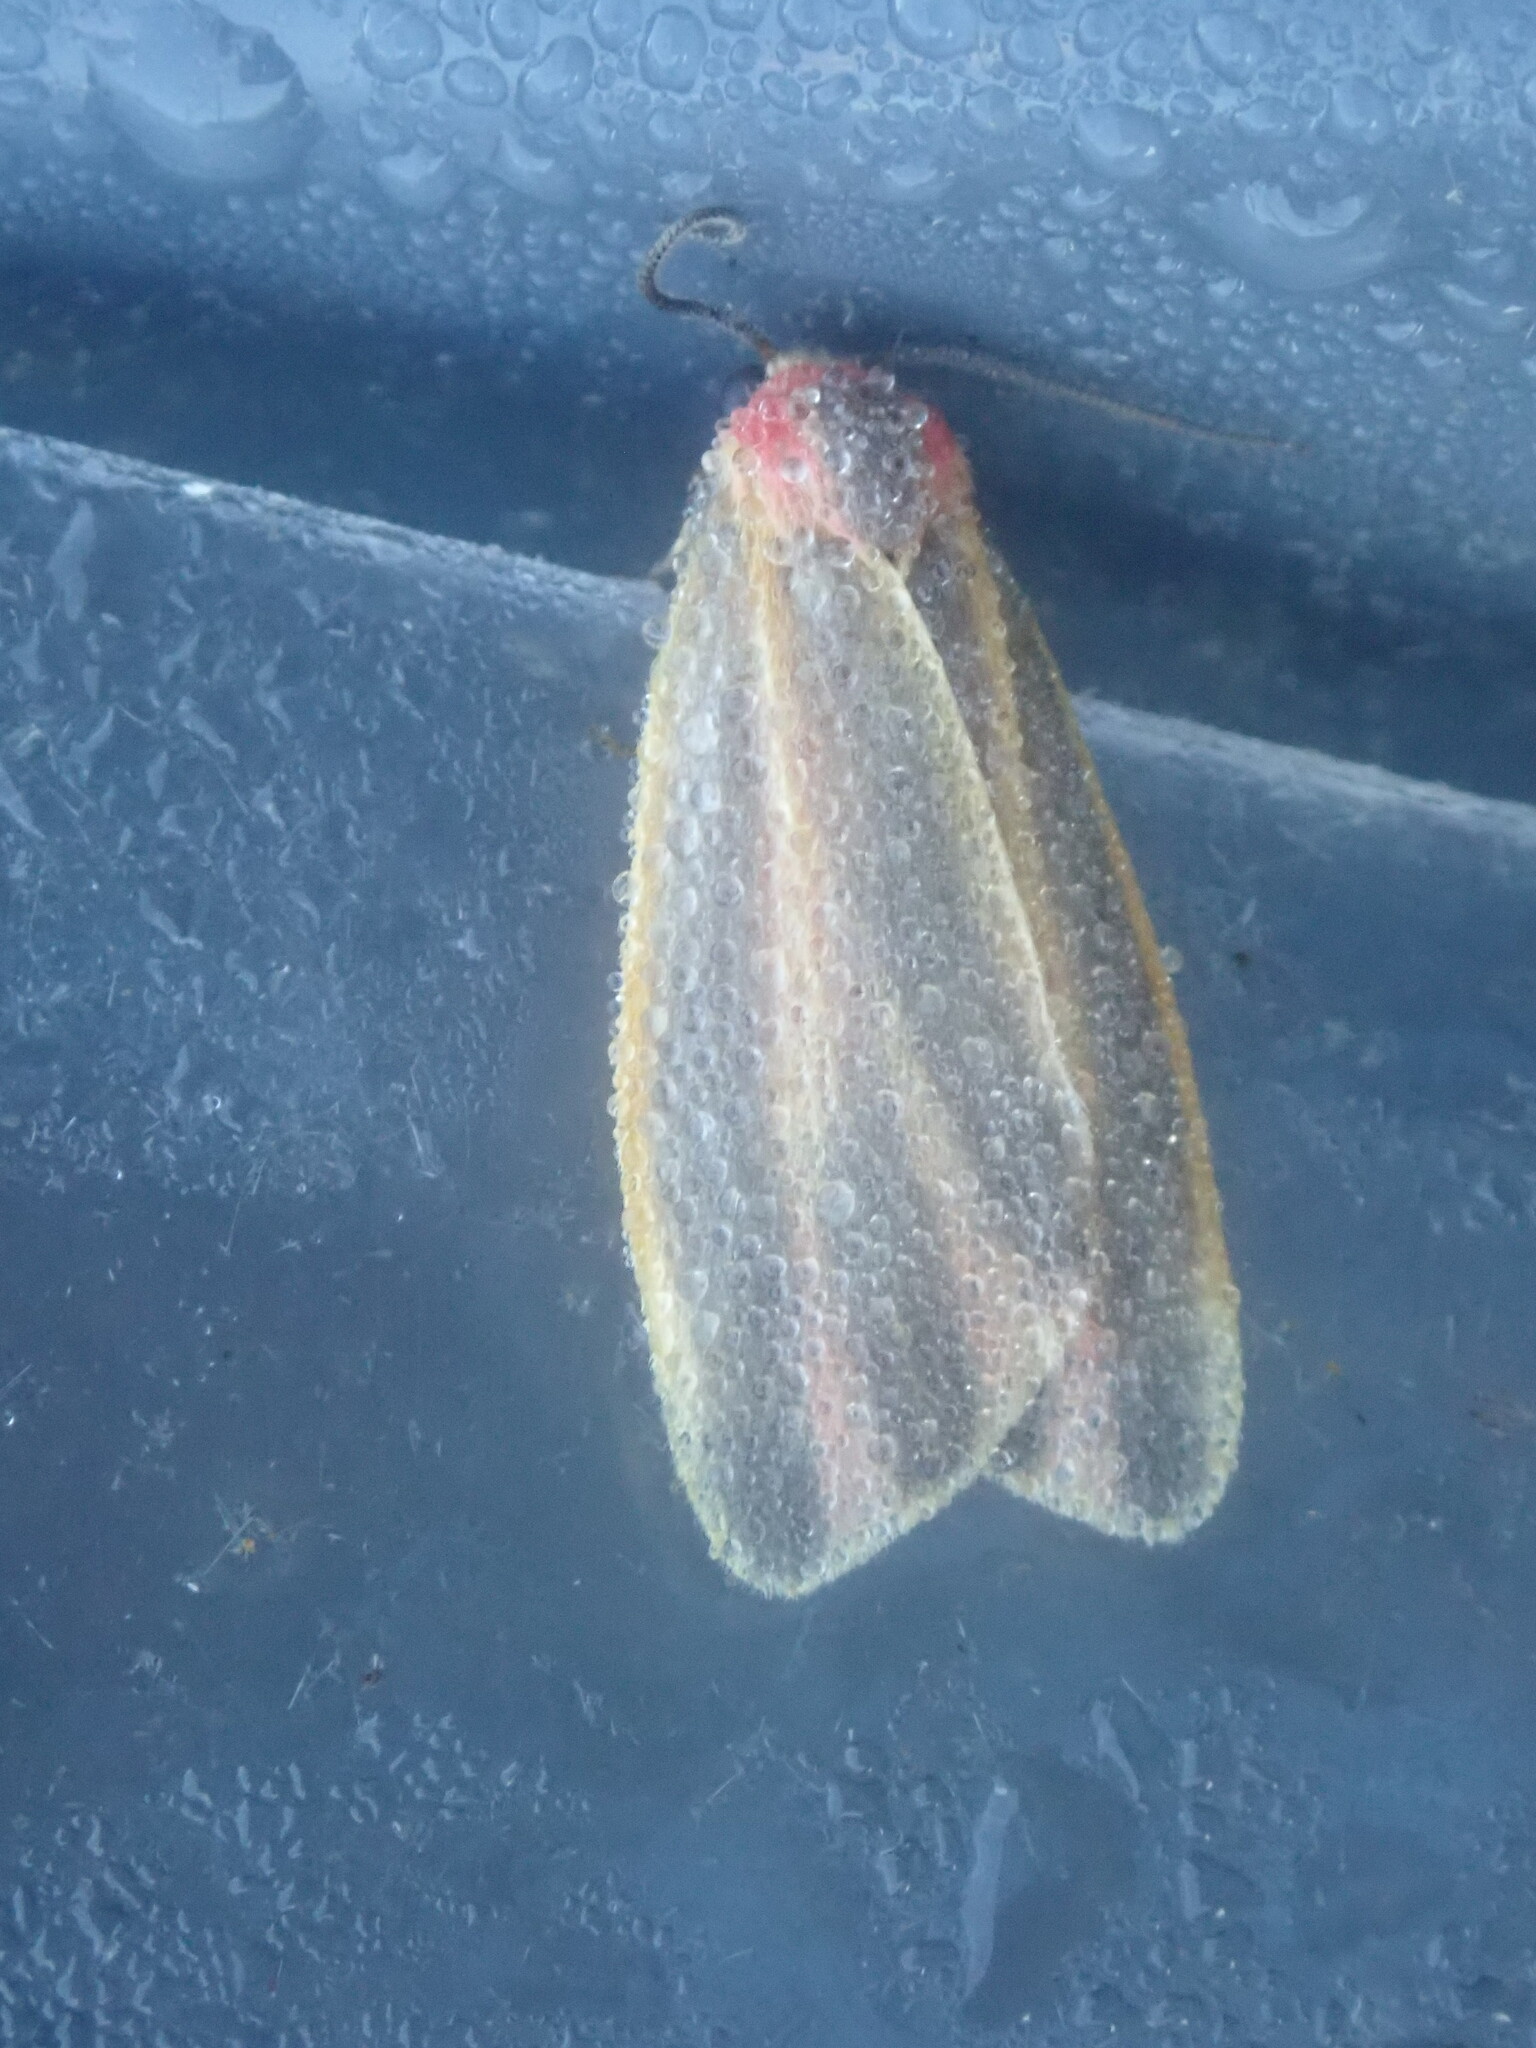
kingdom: Animalia
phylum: Arthropoda
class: Insecta
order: Lepidoptera
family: Erebidae
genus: Hypoprepia
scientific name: Hypoprepia fucosa
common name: Painted lichen moth
